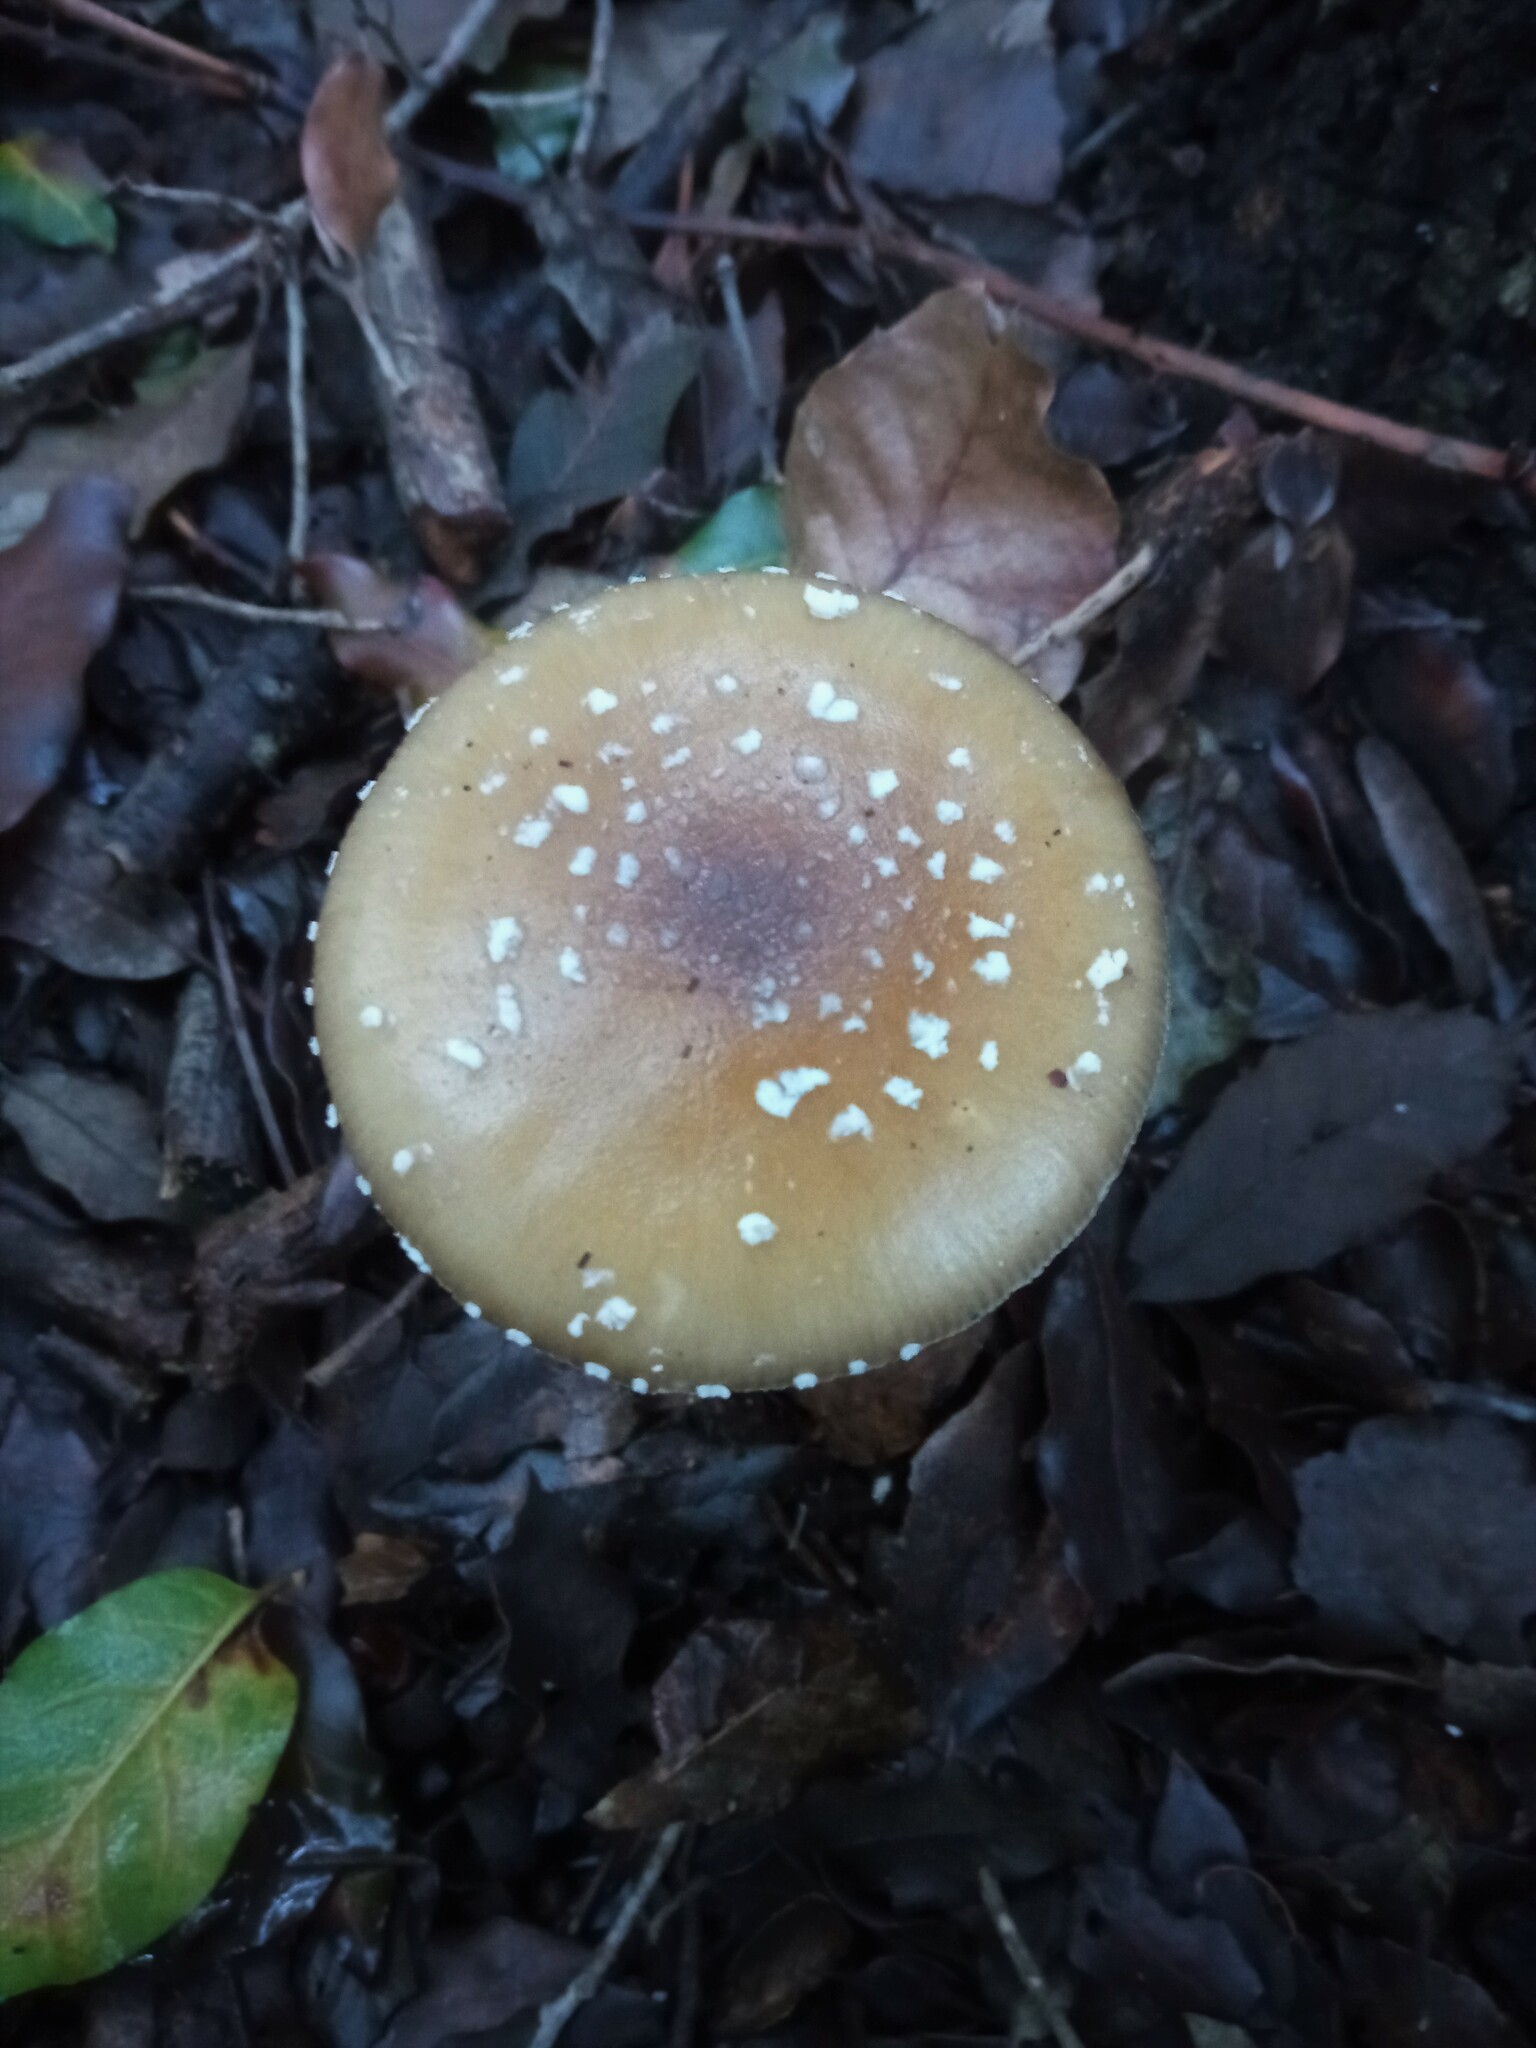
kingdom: Fungi
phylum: Basidiomycota
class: Agaricomycetes
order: Agaricales
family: Amanitaceae
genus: Amanita
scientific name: Amanita pantherina
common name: Panthercap
